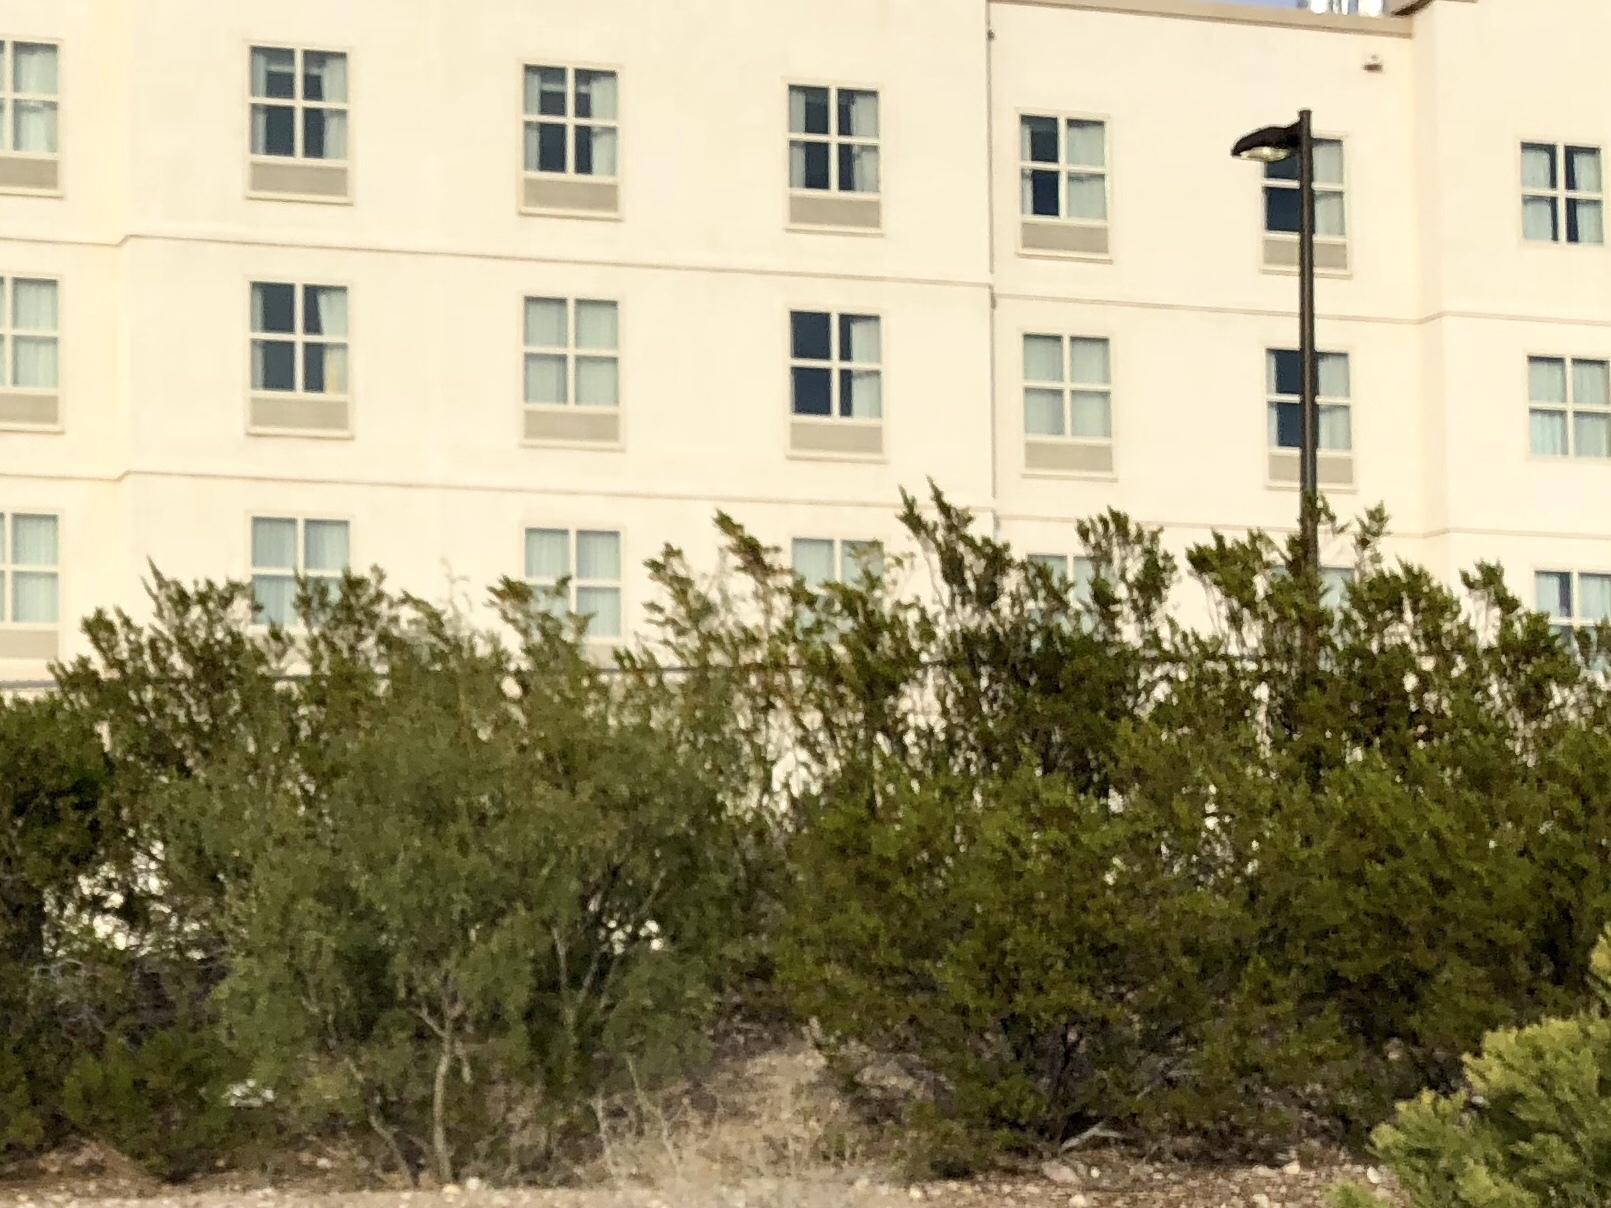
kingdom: Plantae
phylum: Tracheophyta
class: Magnoliopsida
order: Zygophyllales
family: Zygophyllaceae
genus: Larrea
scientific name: Larrea tridentata
